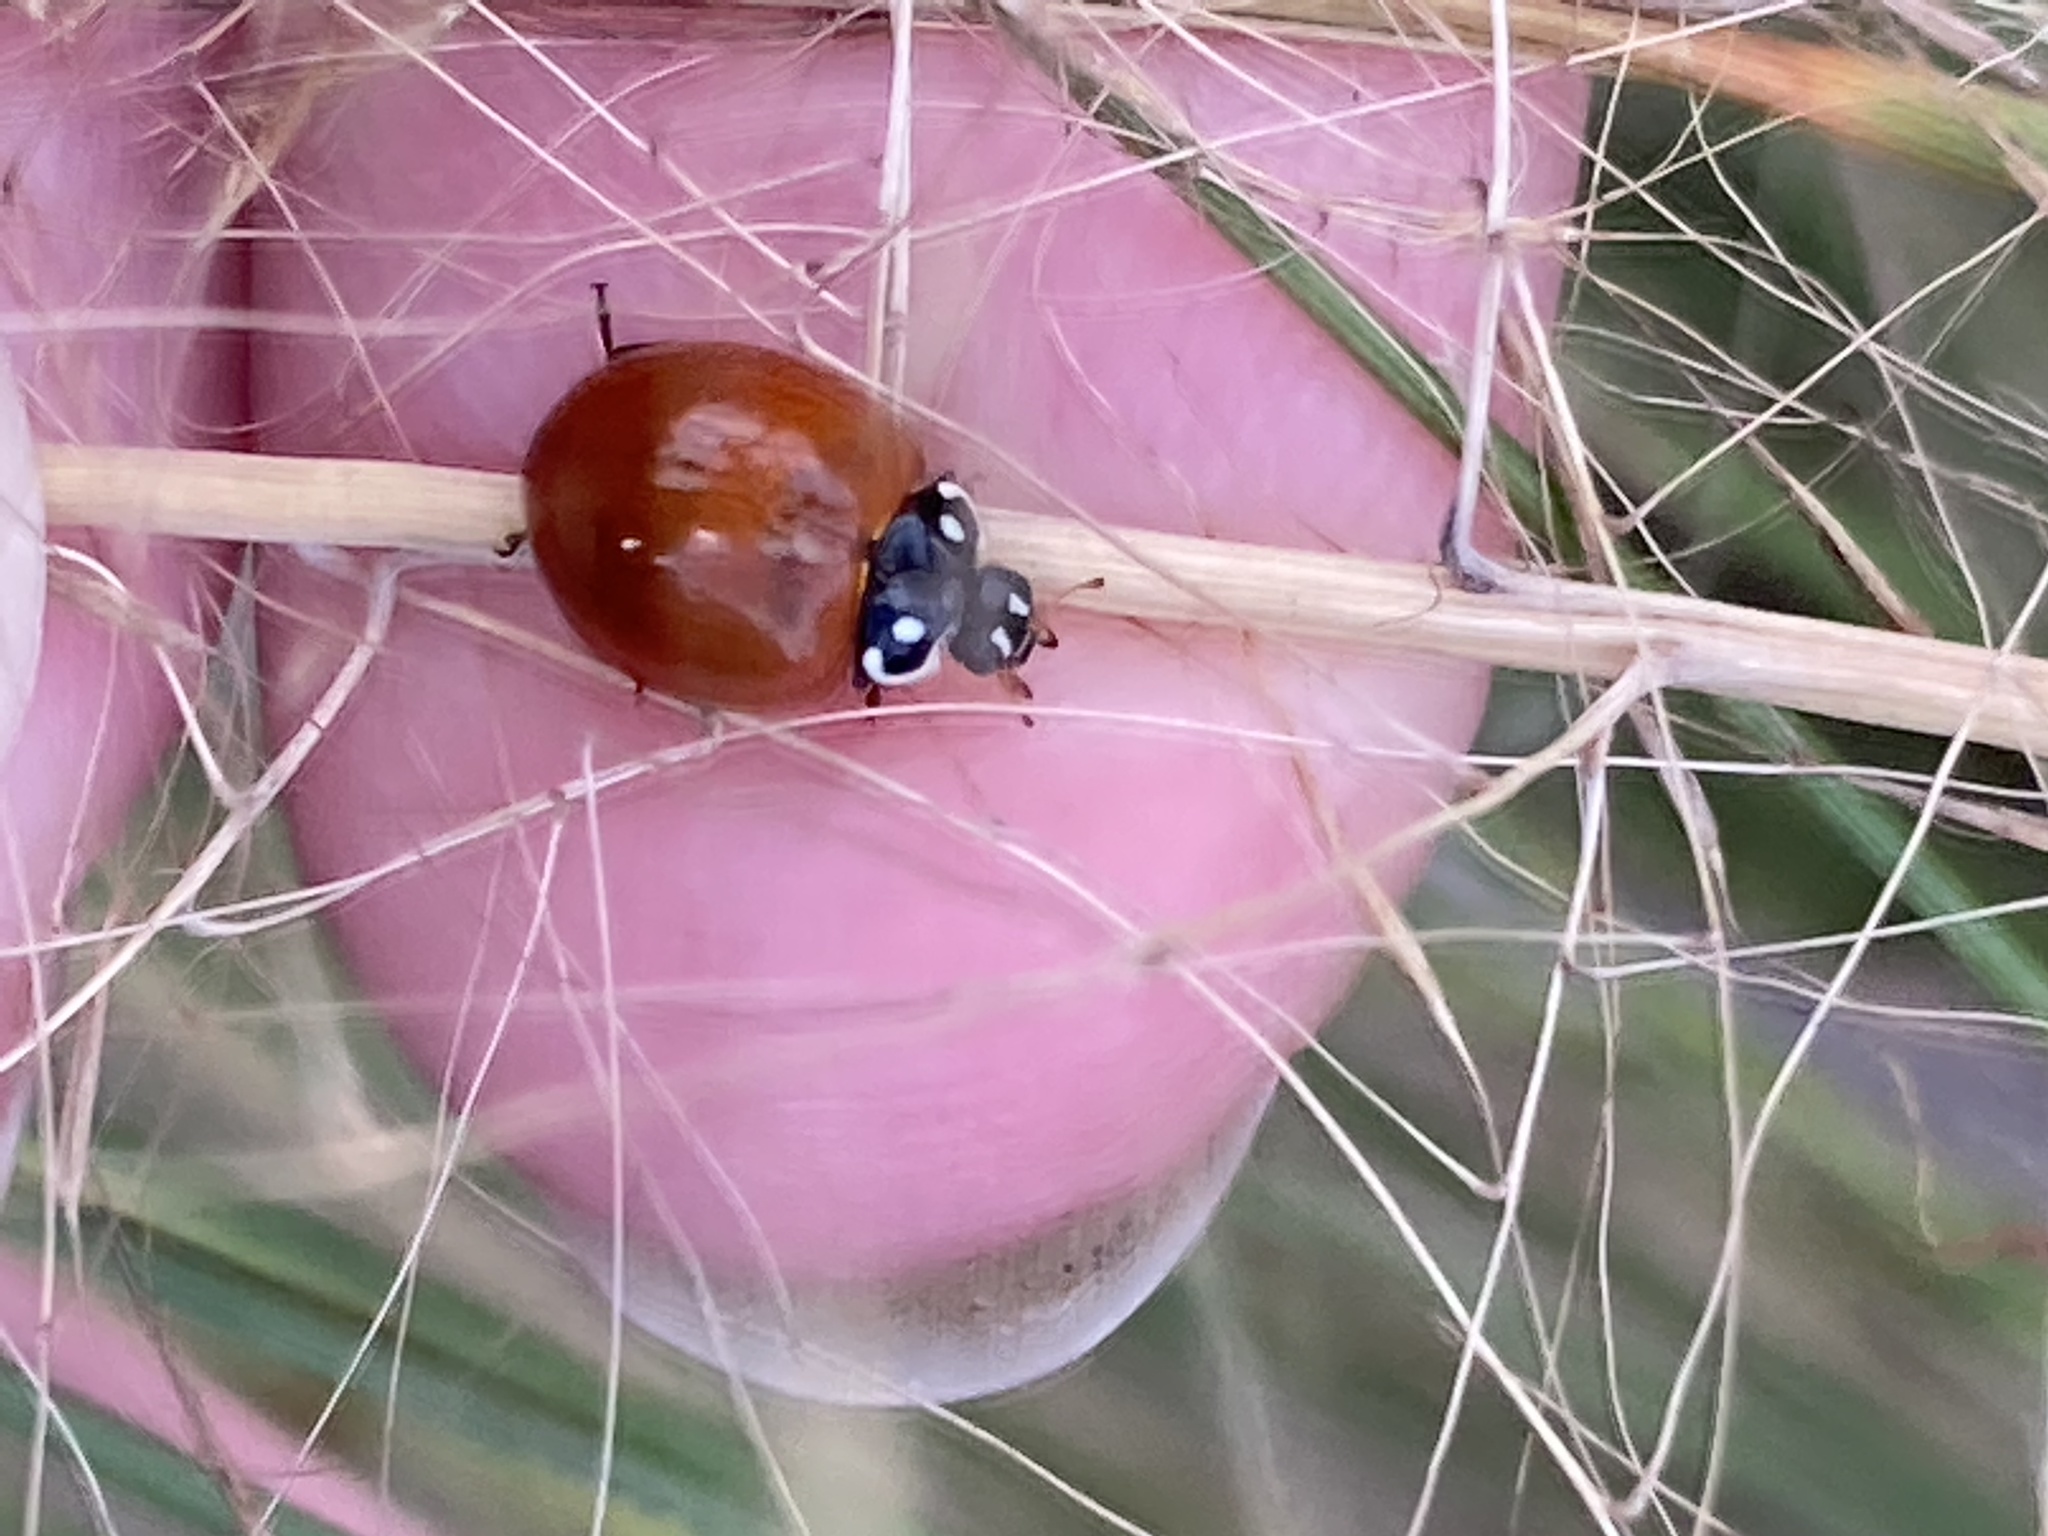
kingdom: Animalia
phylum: Arthropoda
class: Insecta
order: Coleoptera
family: Coccinellidae
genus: Cycloneda
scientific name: Cycloneda sanguinea
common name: Ladybird beetle
